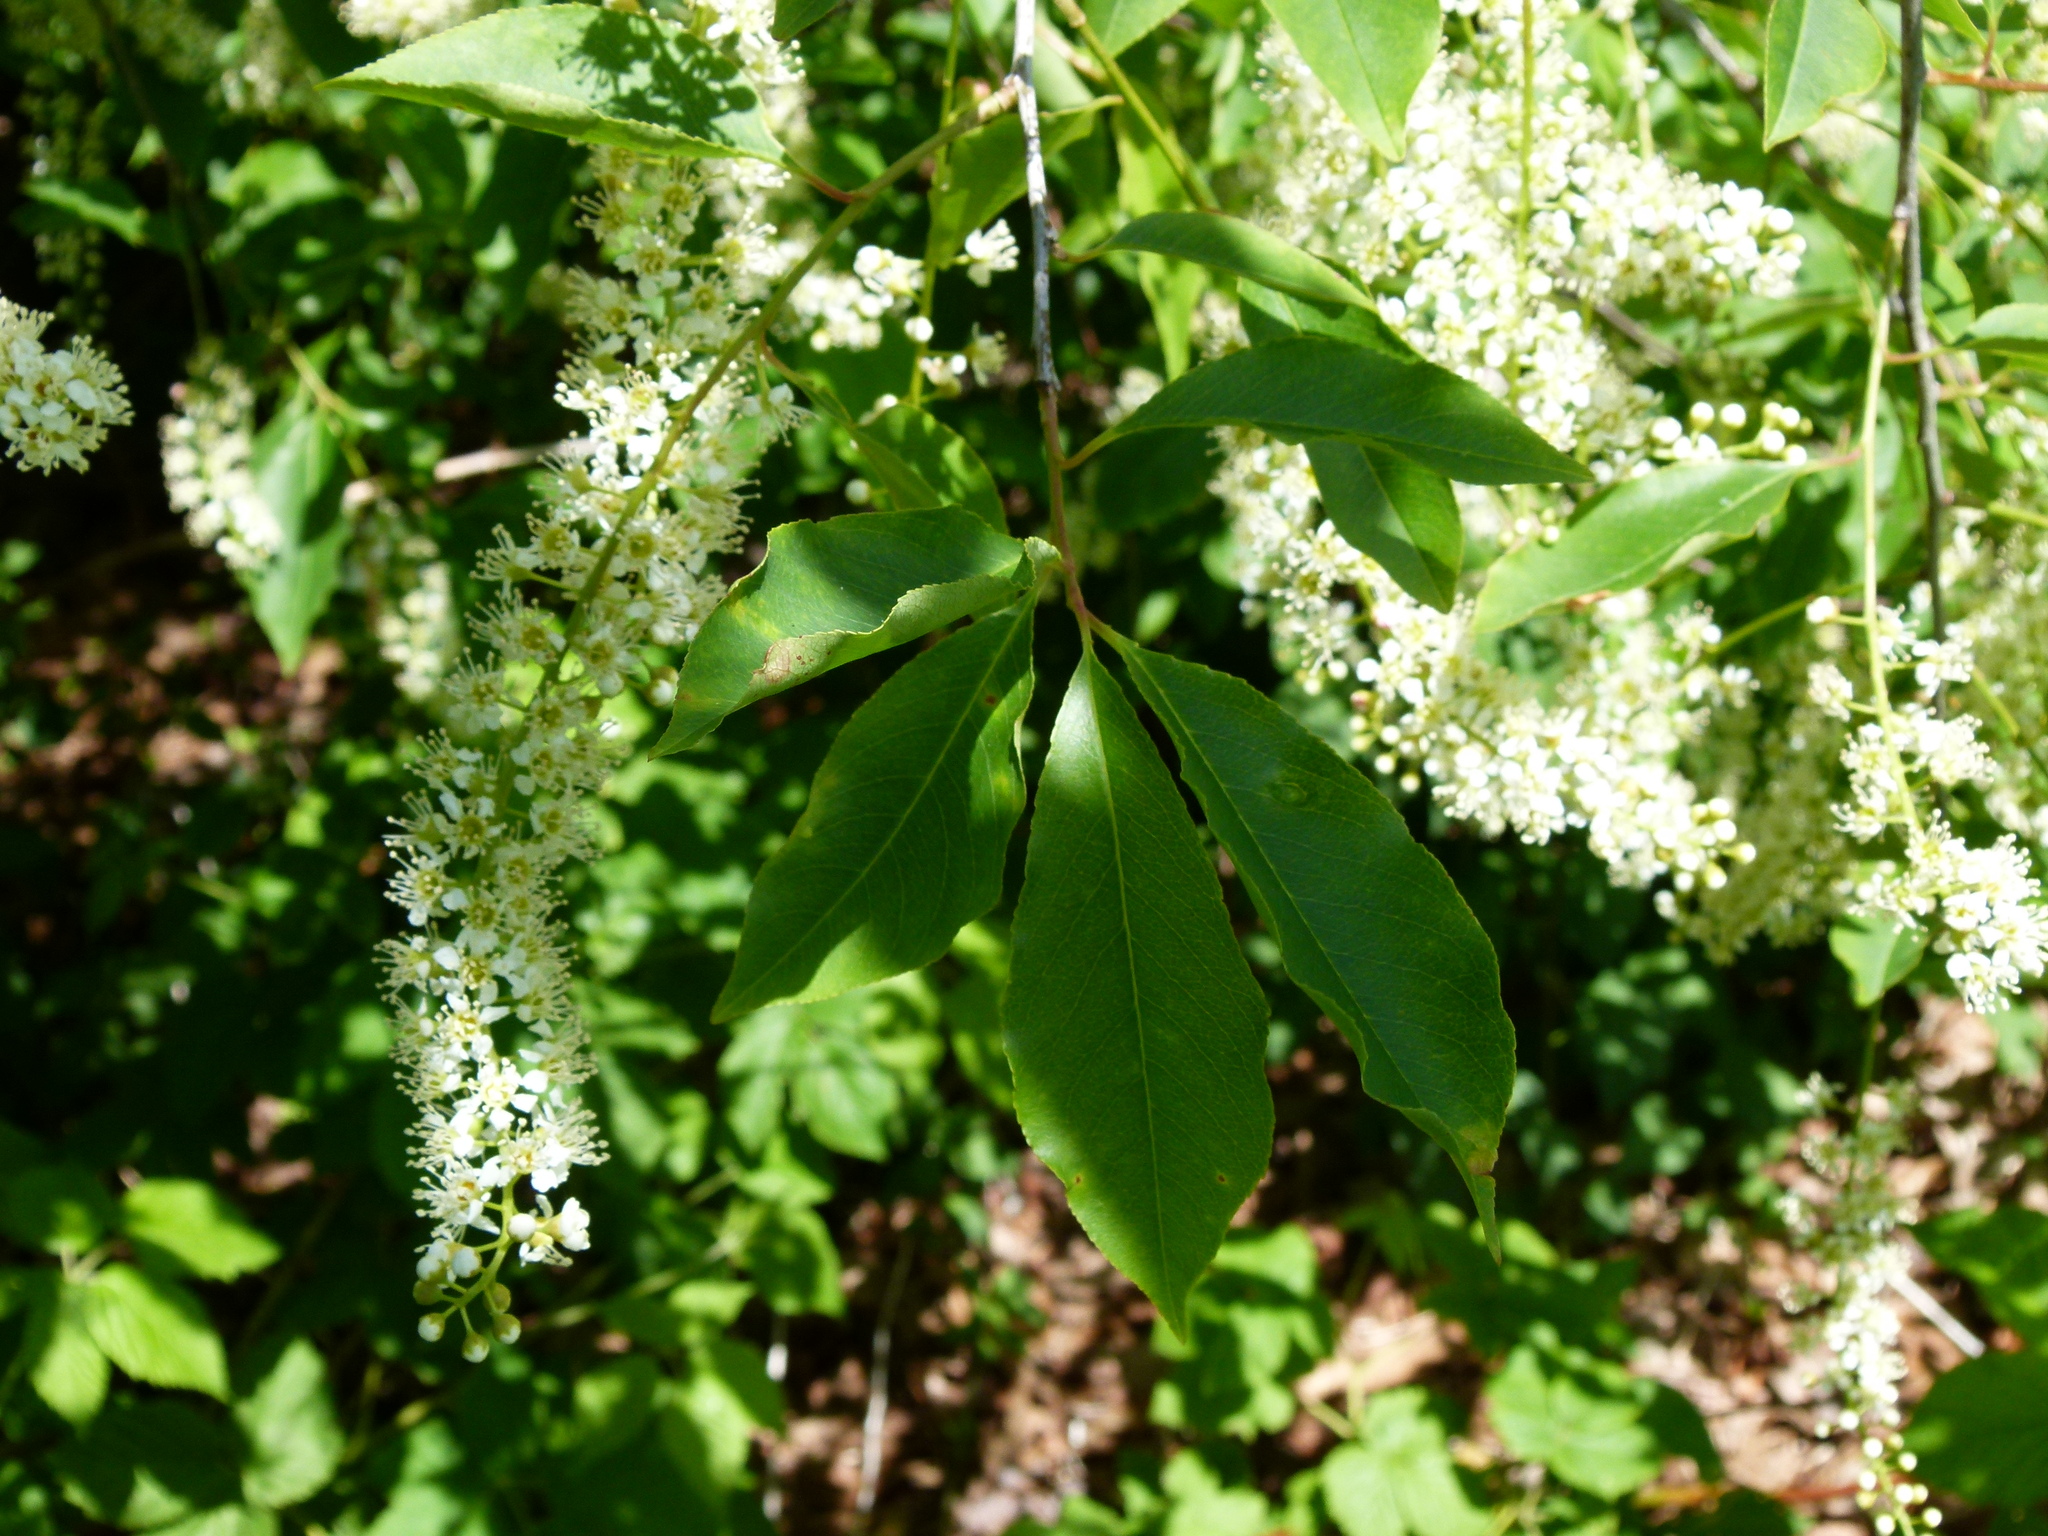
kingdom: Plantae
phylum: Tracheophyta
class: Magnoliopsida
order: Rosales
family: Rosaceae
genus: Prunus
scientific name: Prunus serotina
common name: Black cherry
